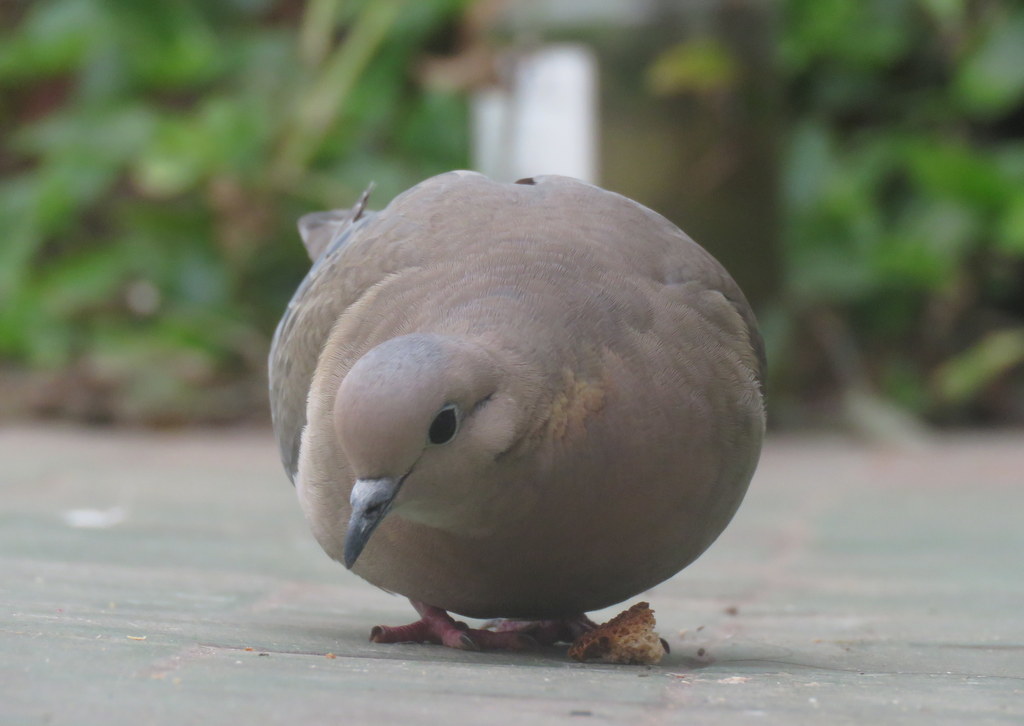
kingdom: Animalia
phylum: Chordata
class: Aves
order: Columbiformes
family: Columbidae
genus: Zenaida
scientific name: Zenaida auriculata
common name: Eared dove
